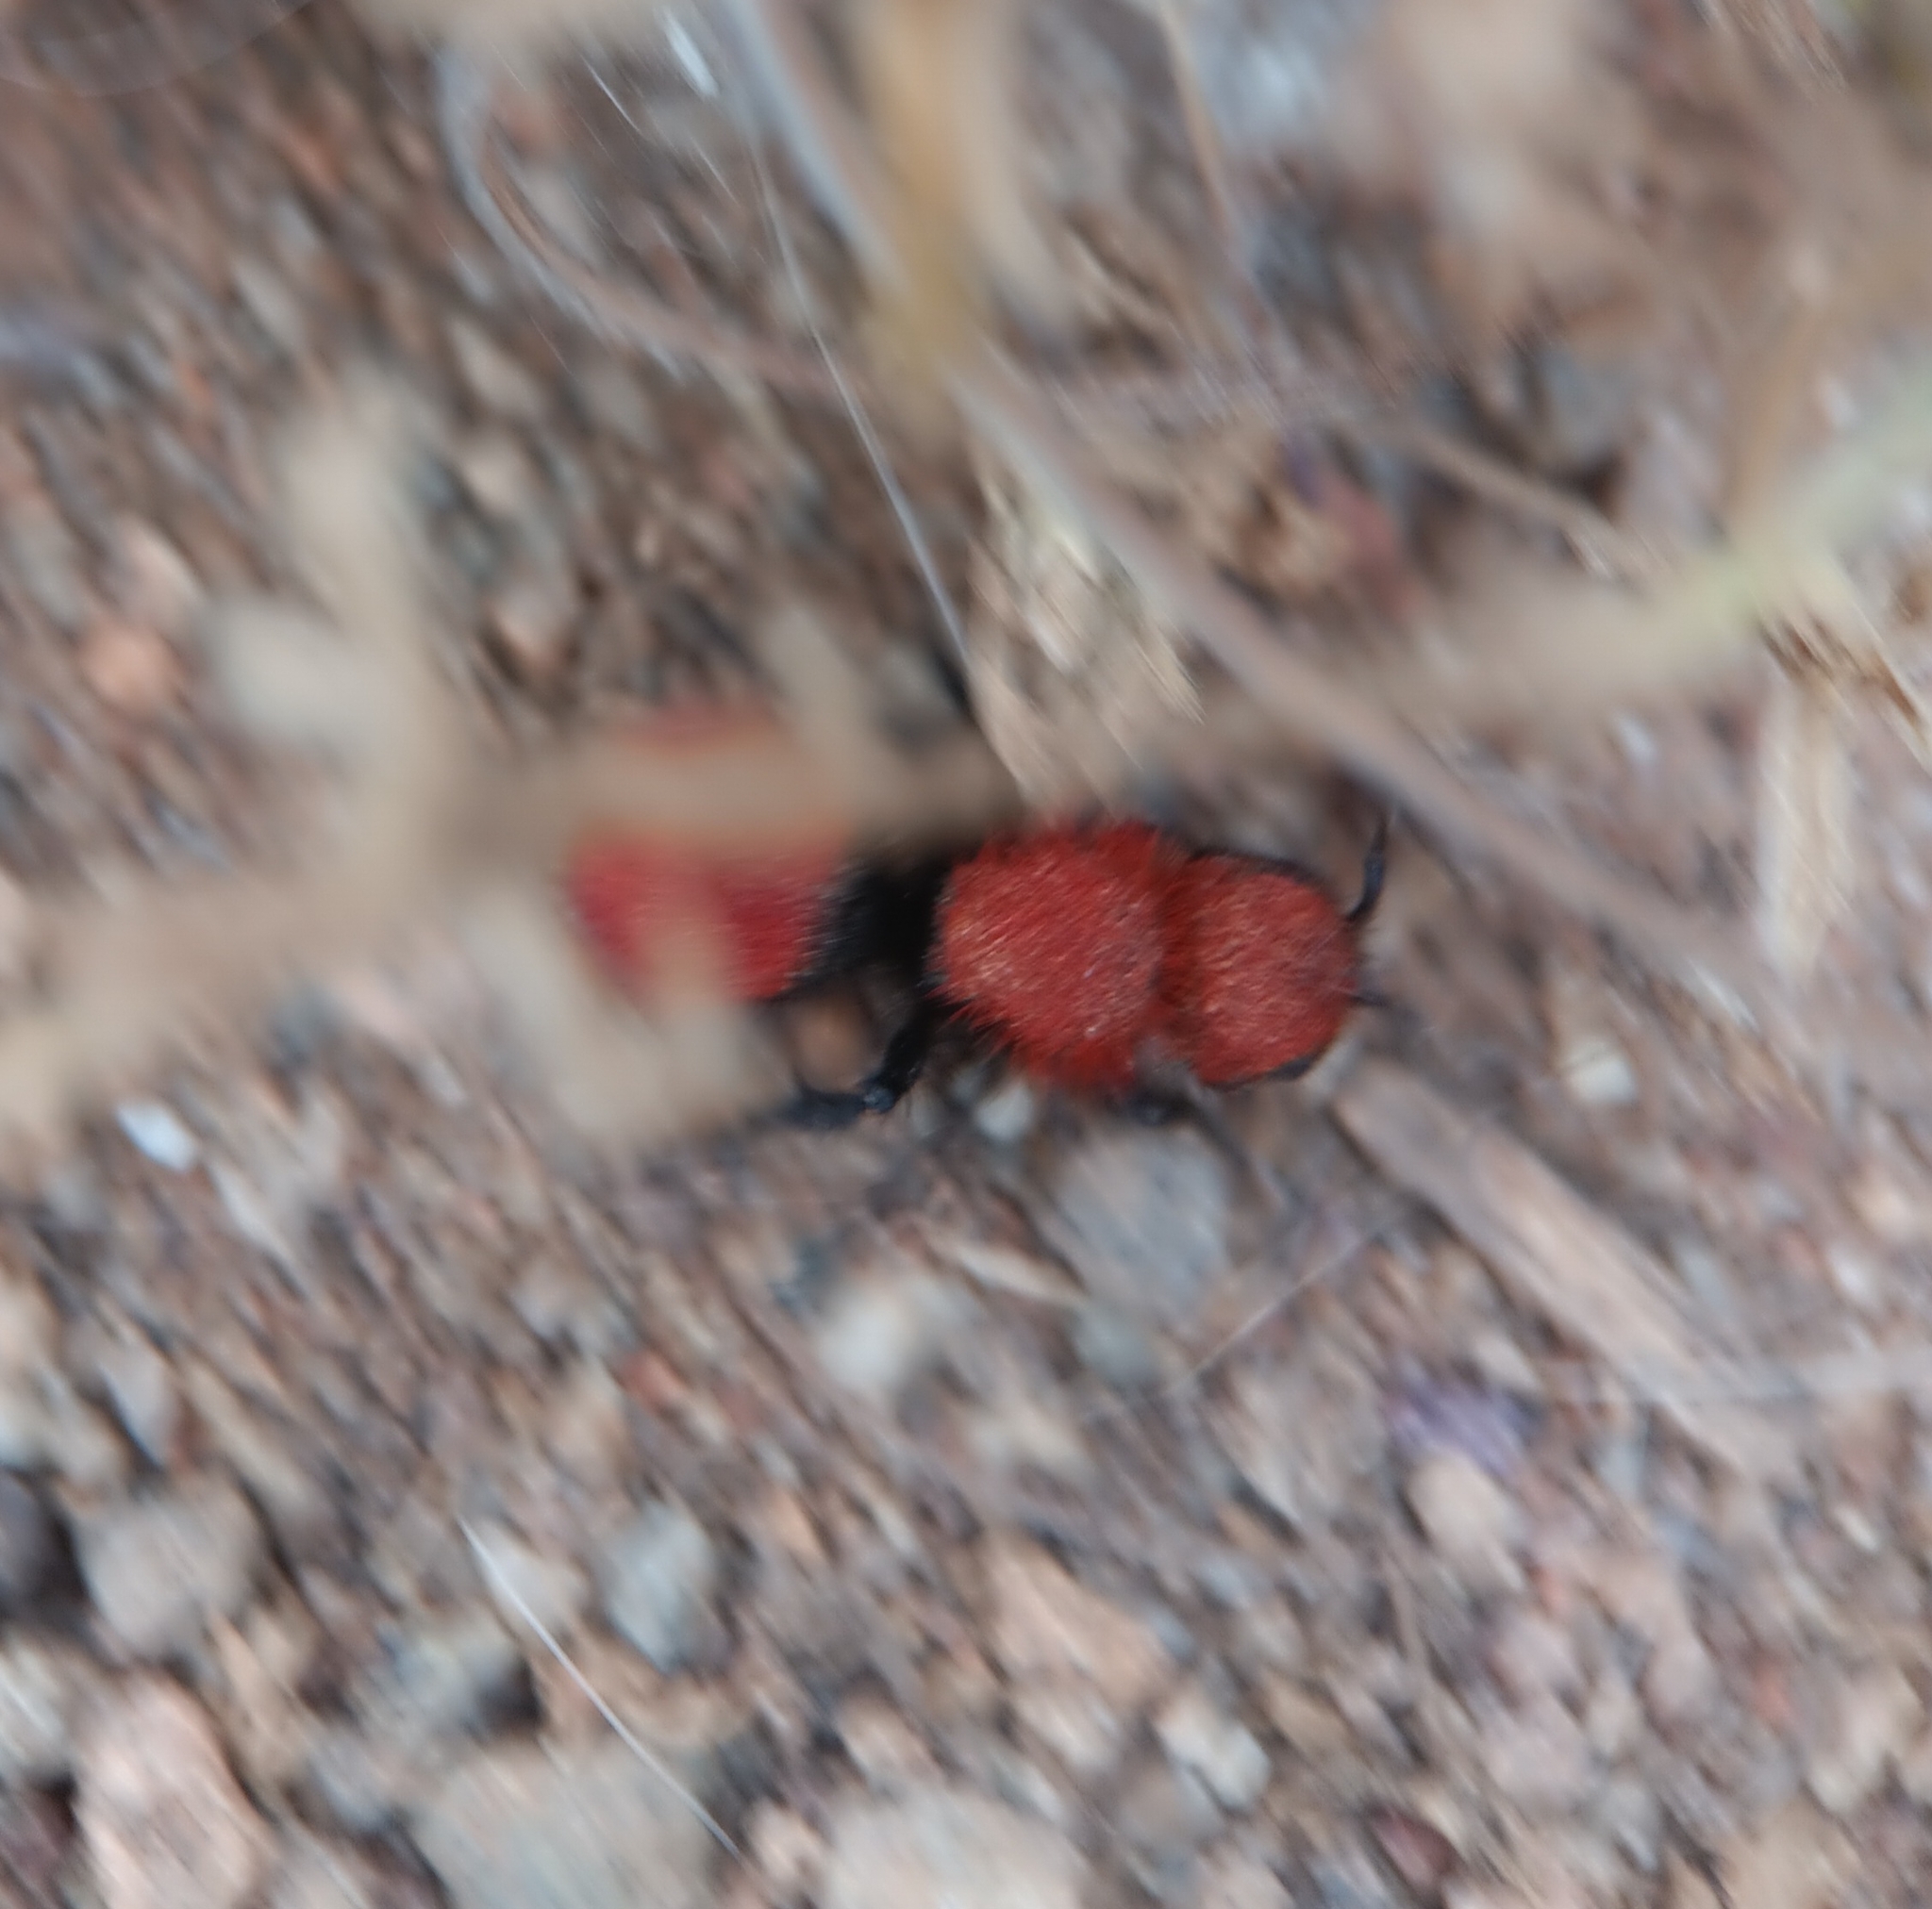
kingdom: Animalia
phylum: Arthropoda
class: Insecta
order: Hymenoptera
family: Mutillidae
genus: Dasymutilla
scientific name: Dasymutilla
